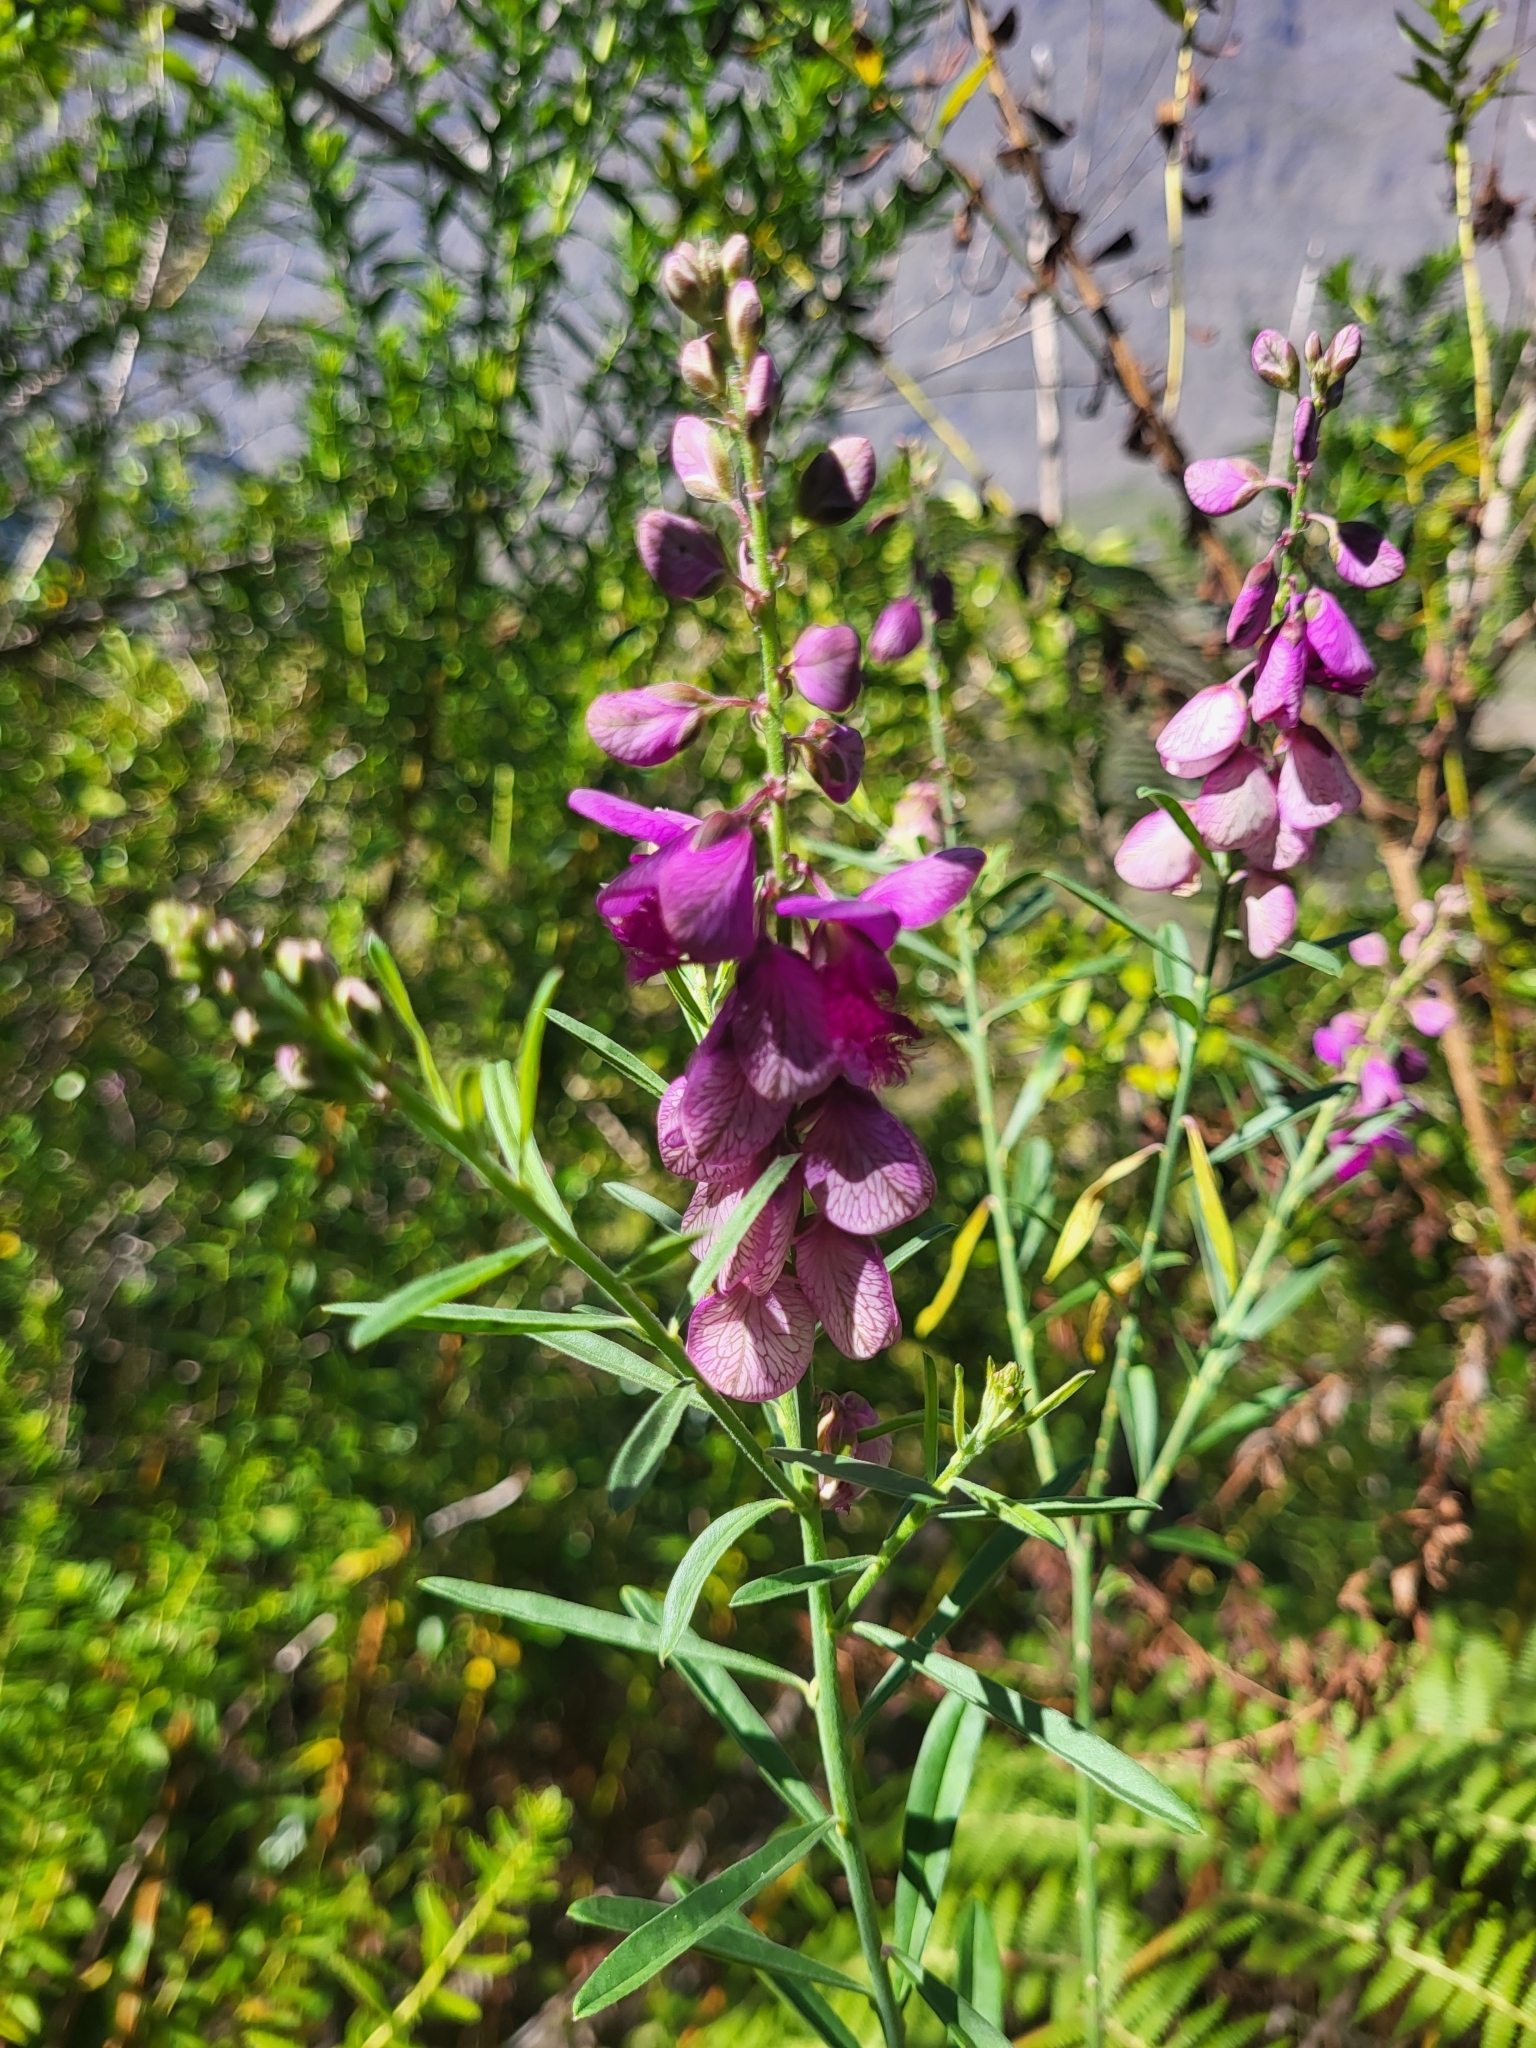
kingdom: Plantae
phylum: Tracheophyta
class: Magnoliopsida
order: Fabales
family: Polygalaceae
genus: Polygala
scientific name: Polygala virgata
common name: Milkwort
